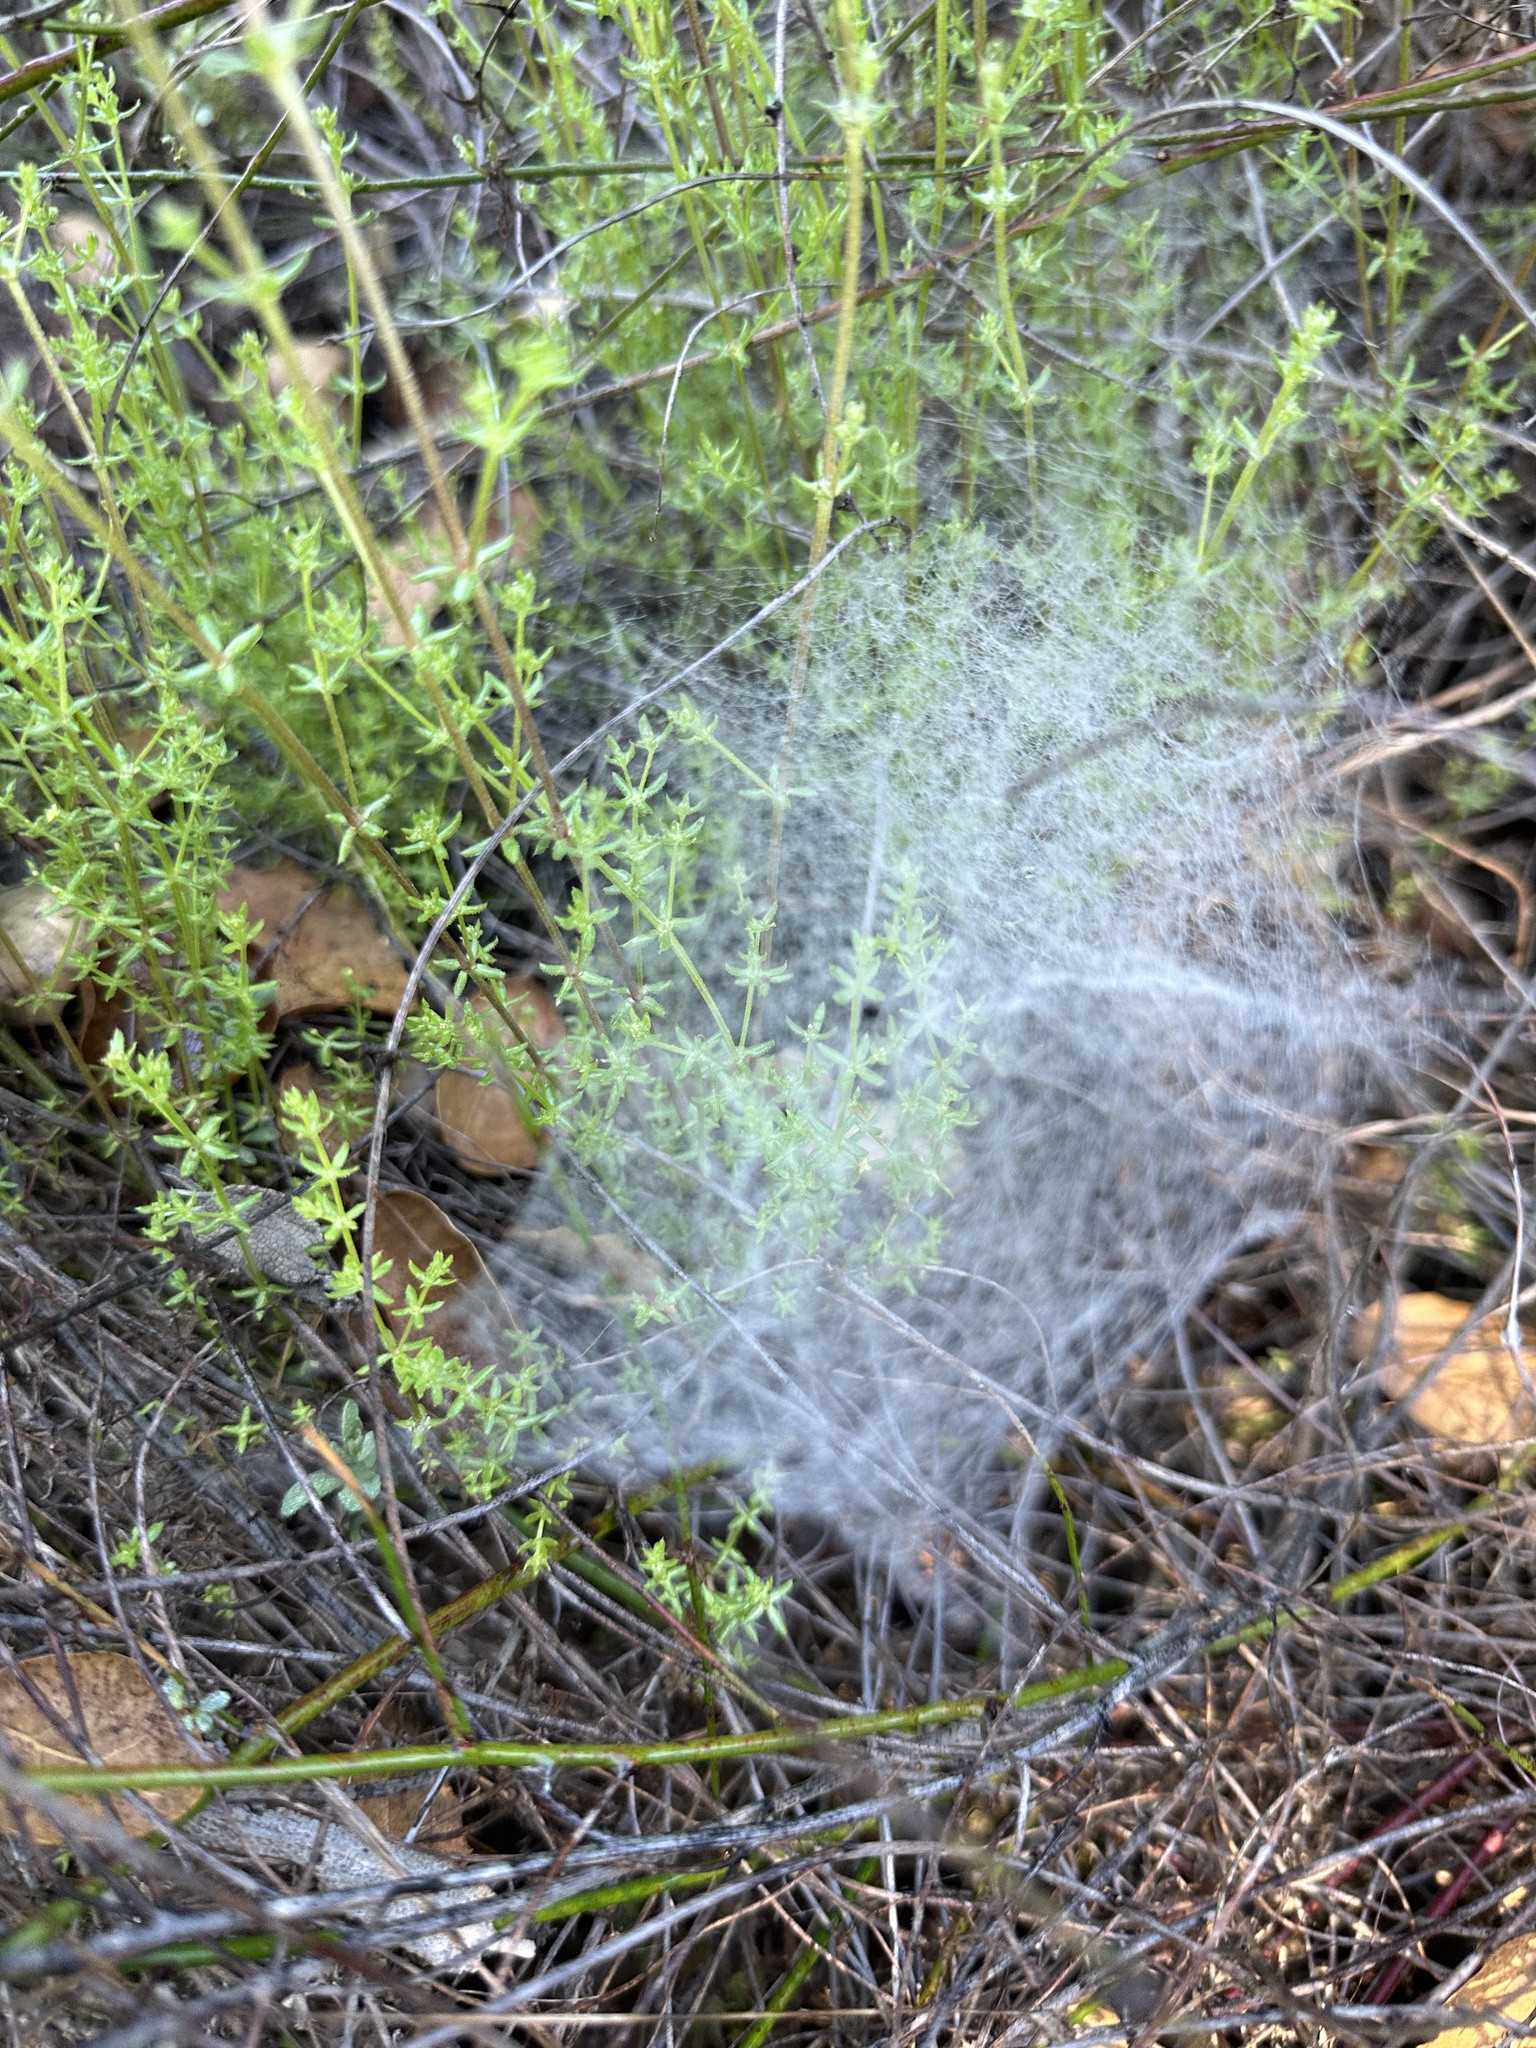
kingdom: Animalia
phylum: Arthropoda
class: Arachnida
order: Araneae
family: Linyphiidae
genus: Frontinella
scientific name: Frontinella pyramitela
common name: Bowl-and-doily spider
